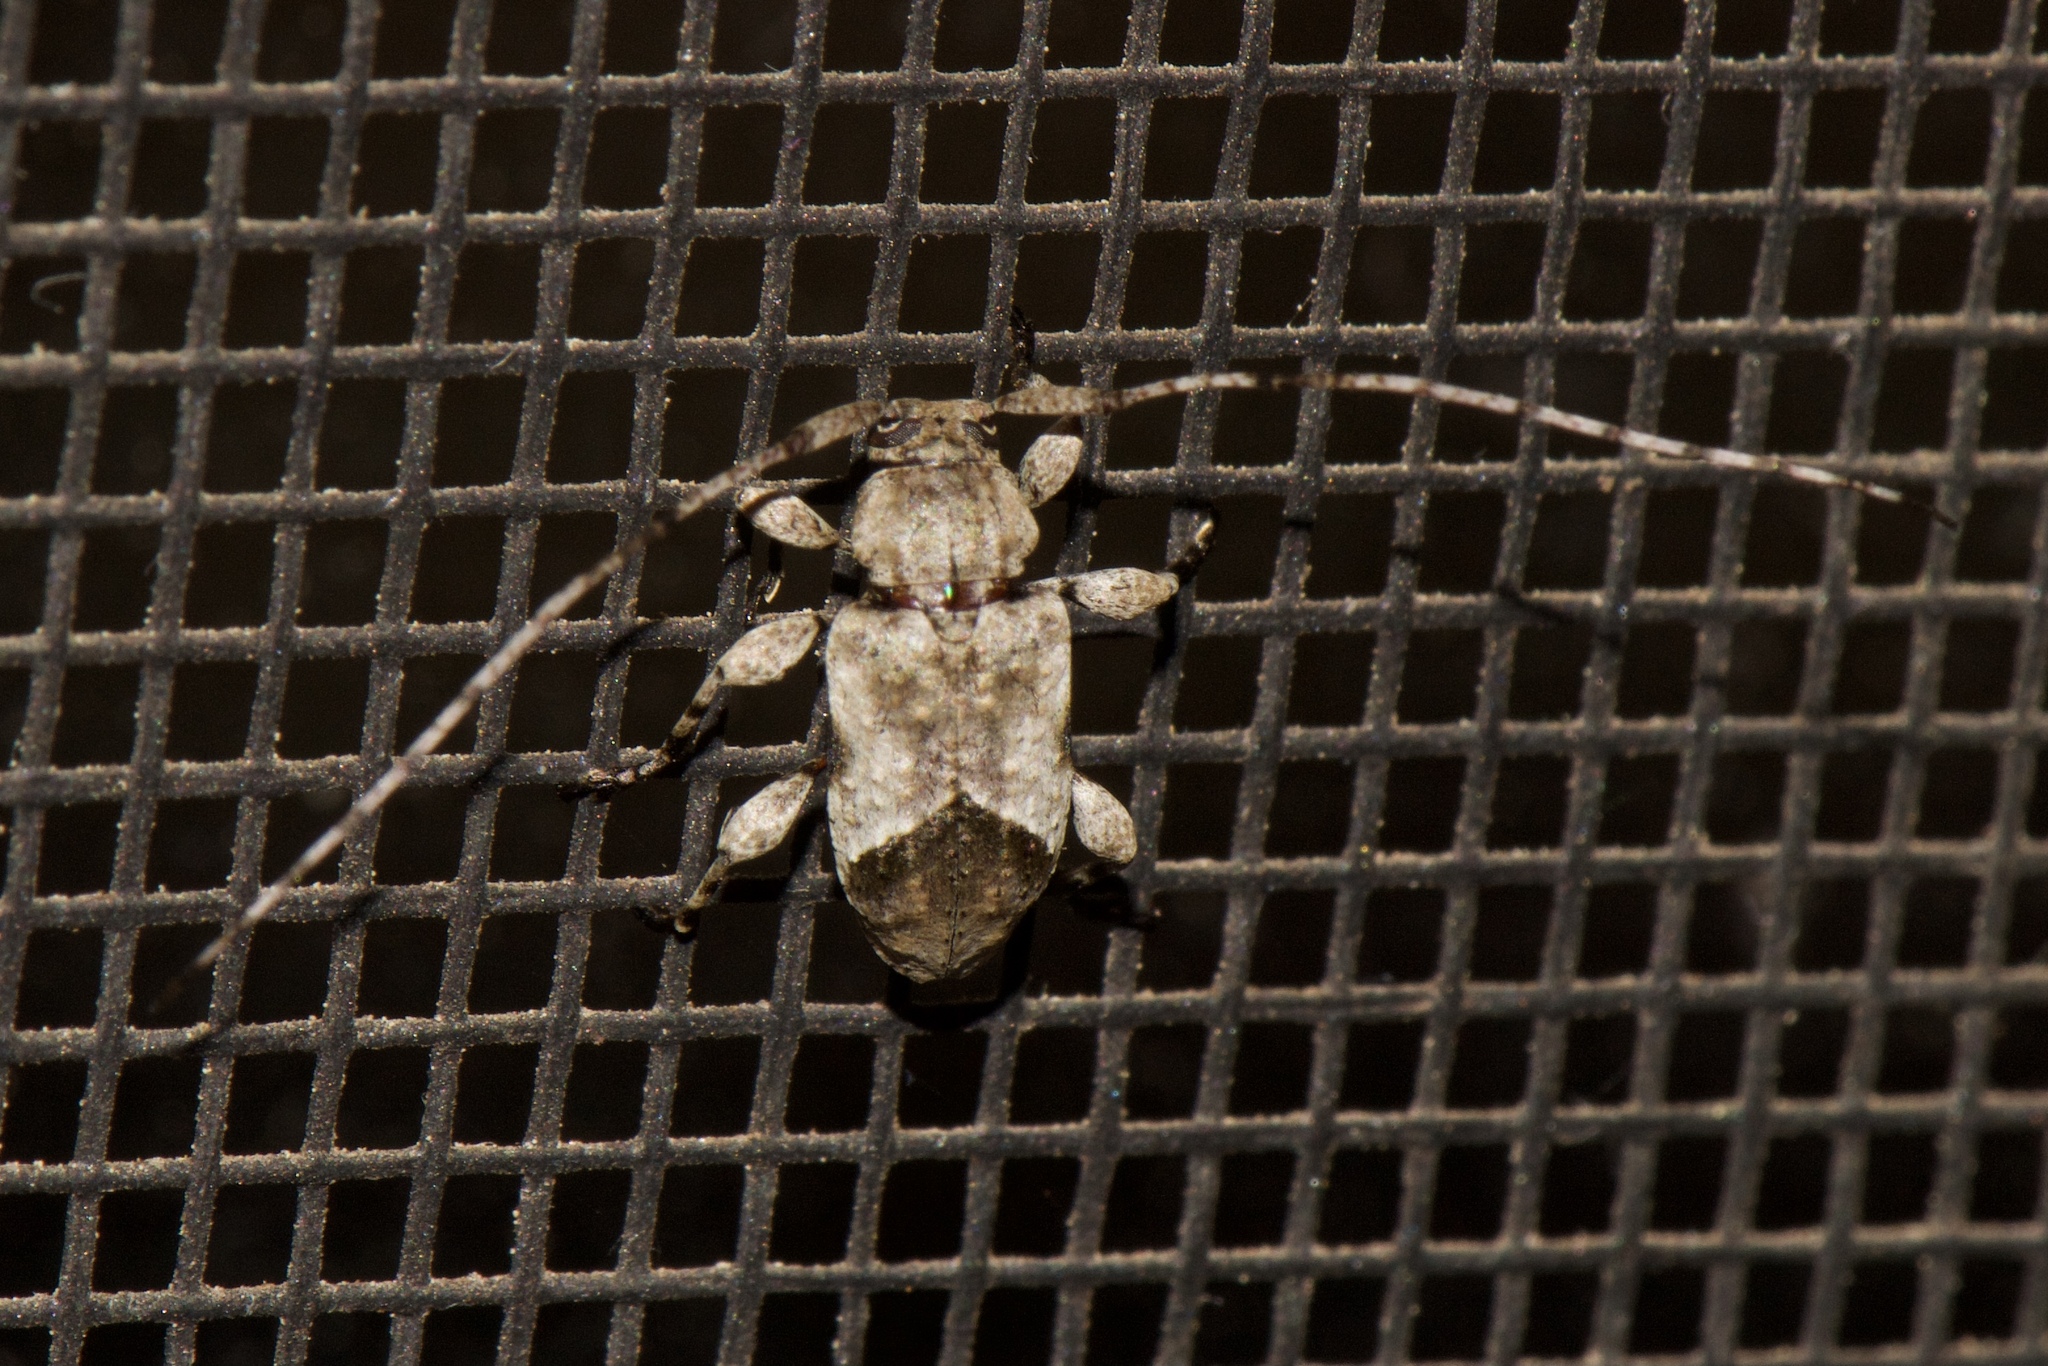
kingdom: Animalia
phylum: Arthropoda
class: Insecta
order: Coleoptera
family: Cerambycidae
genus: Leptostylus
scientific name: Leptostylus cretatellus
